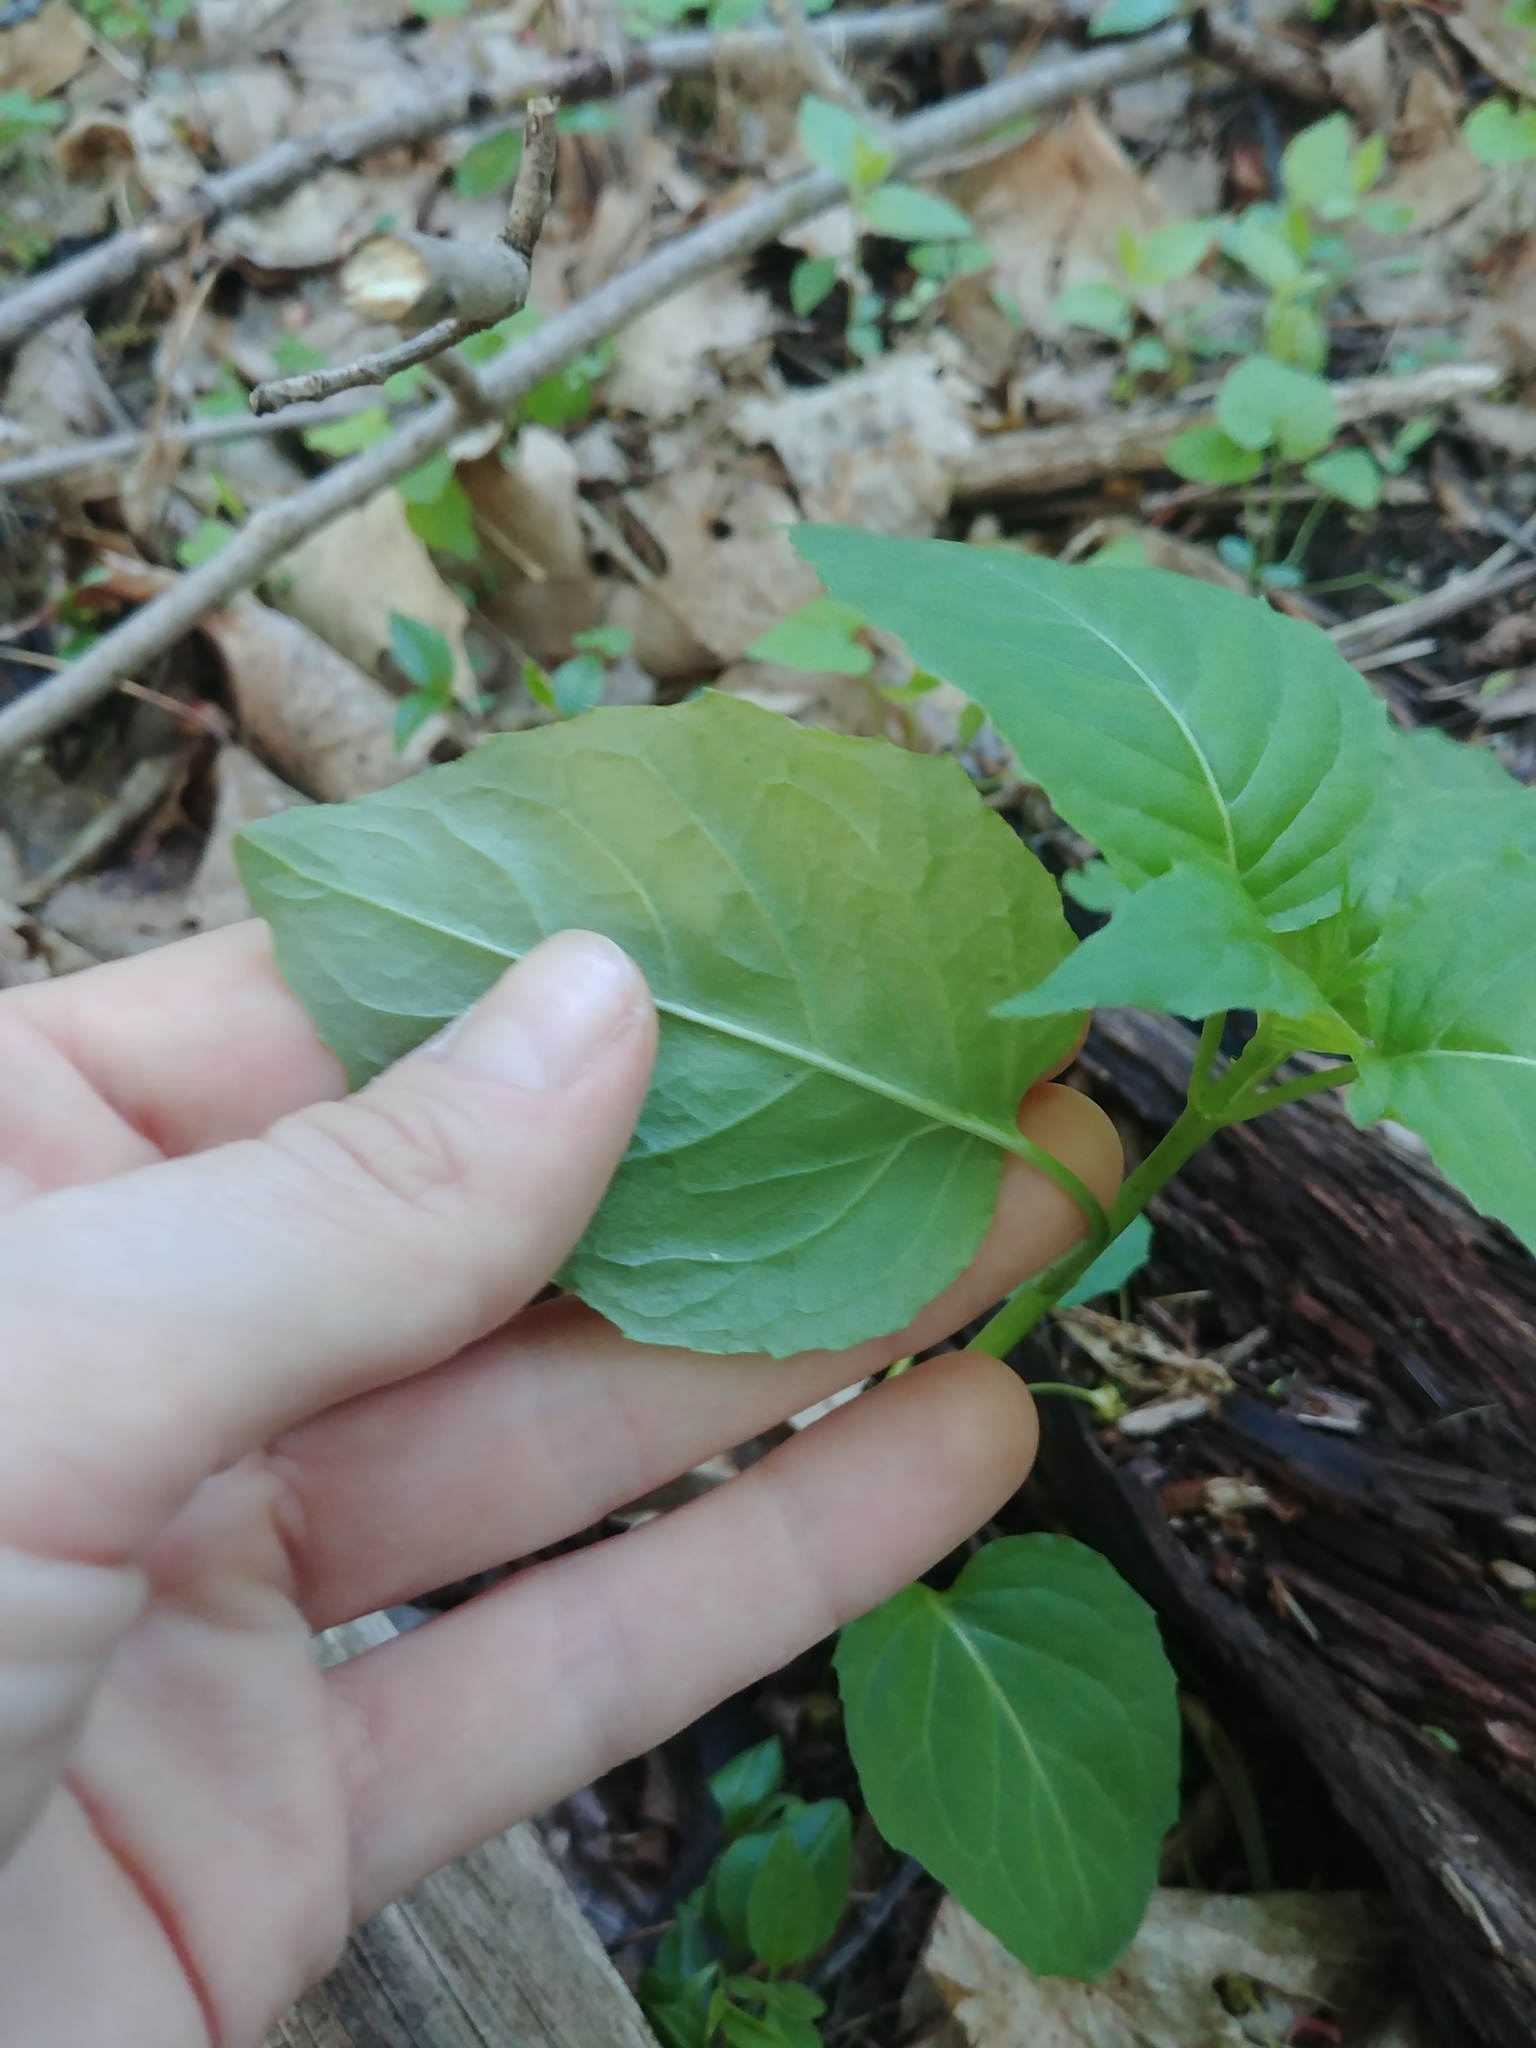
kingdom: Plantae
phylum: Tracheophyta
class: Magnoliopsida
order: Myrtales
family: Onagraceae
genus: Circaea
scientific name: Circaea canadensis
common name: Broad-leaved enchanter's nightshade
